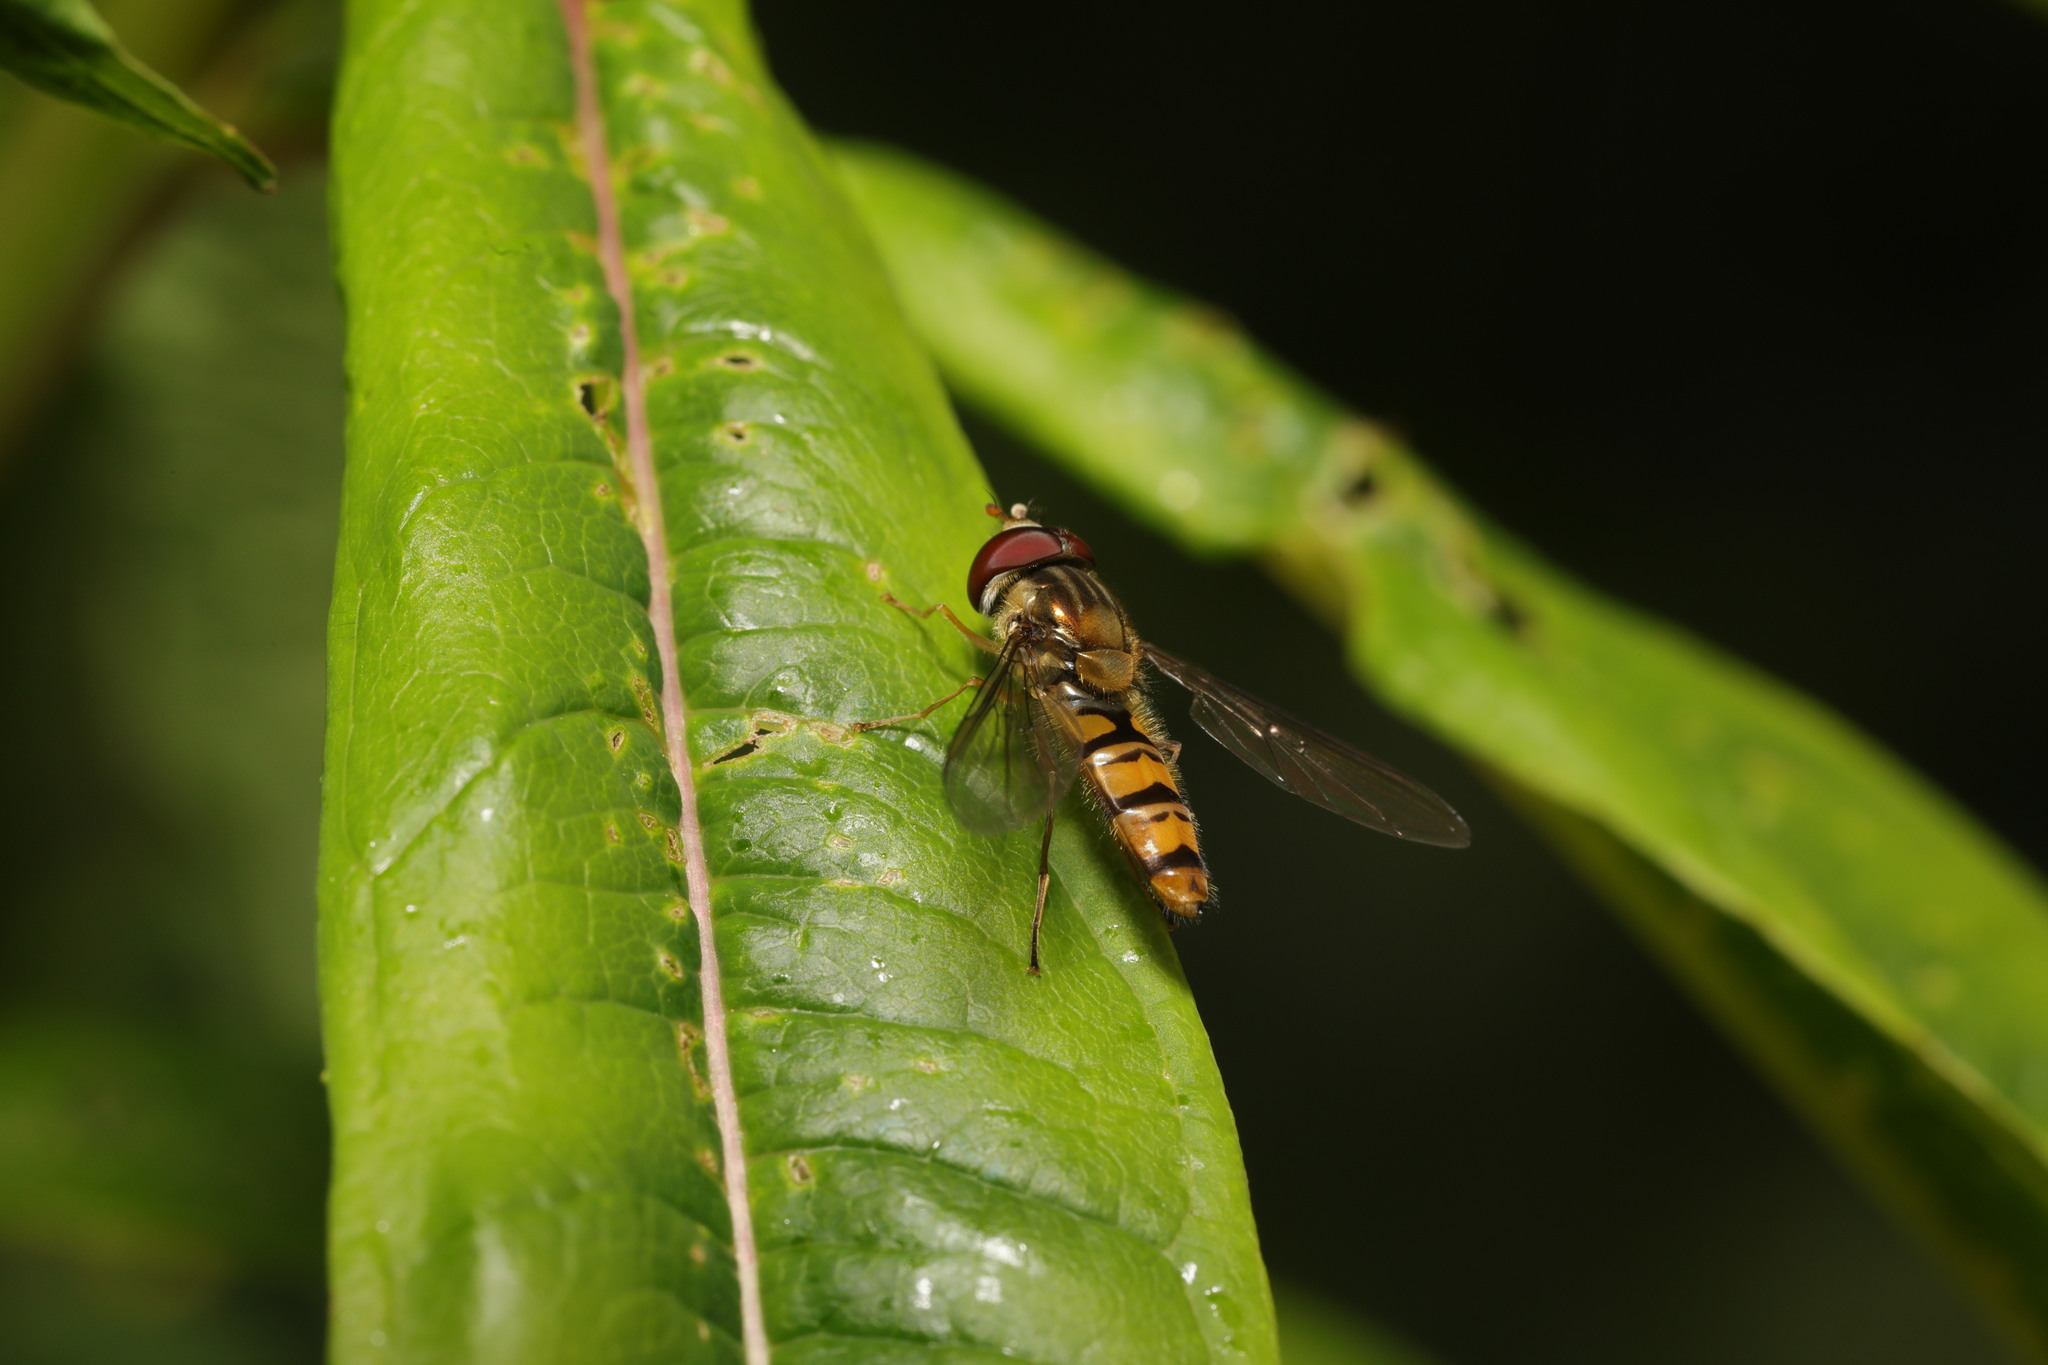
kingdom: Animalia
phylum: Arthropoda
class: Insecta
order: Diptera
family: Syrphidae
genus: Episyrphus
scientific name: Episyrphus balteatus
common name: Marmalade hoverfly
